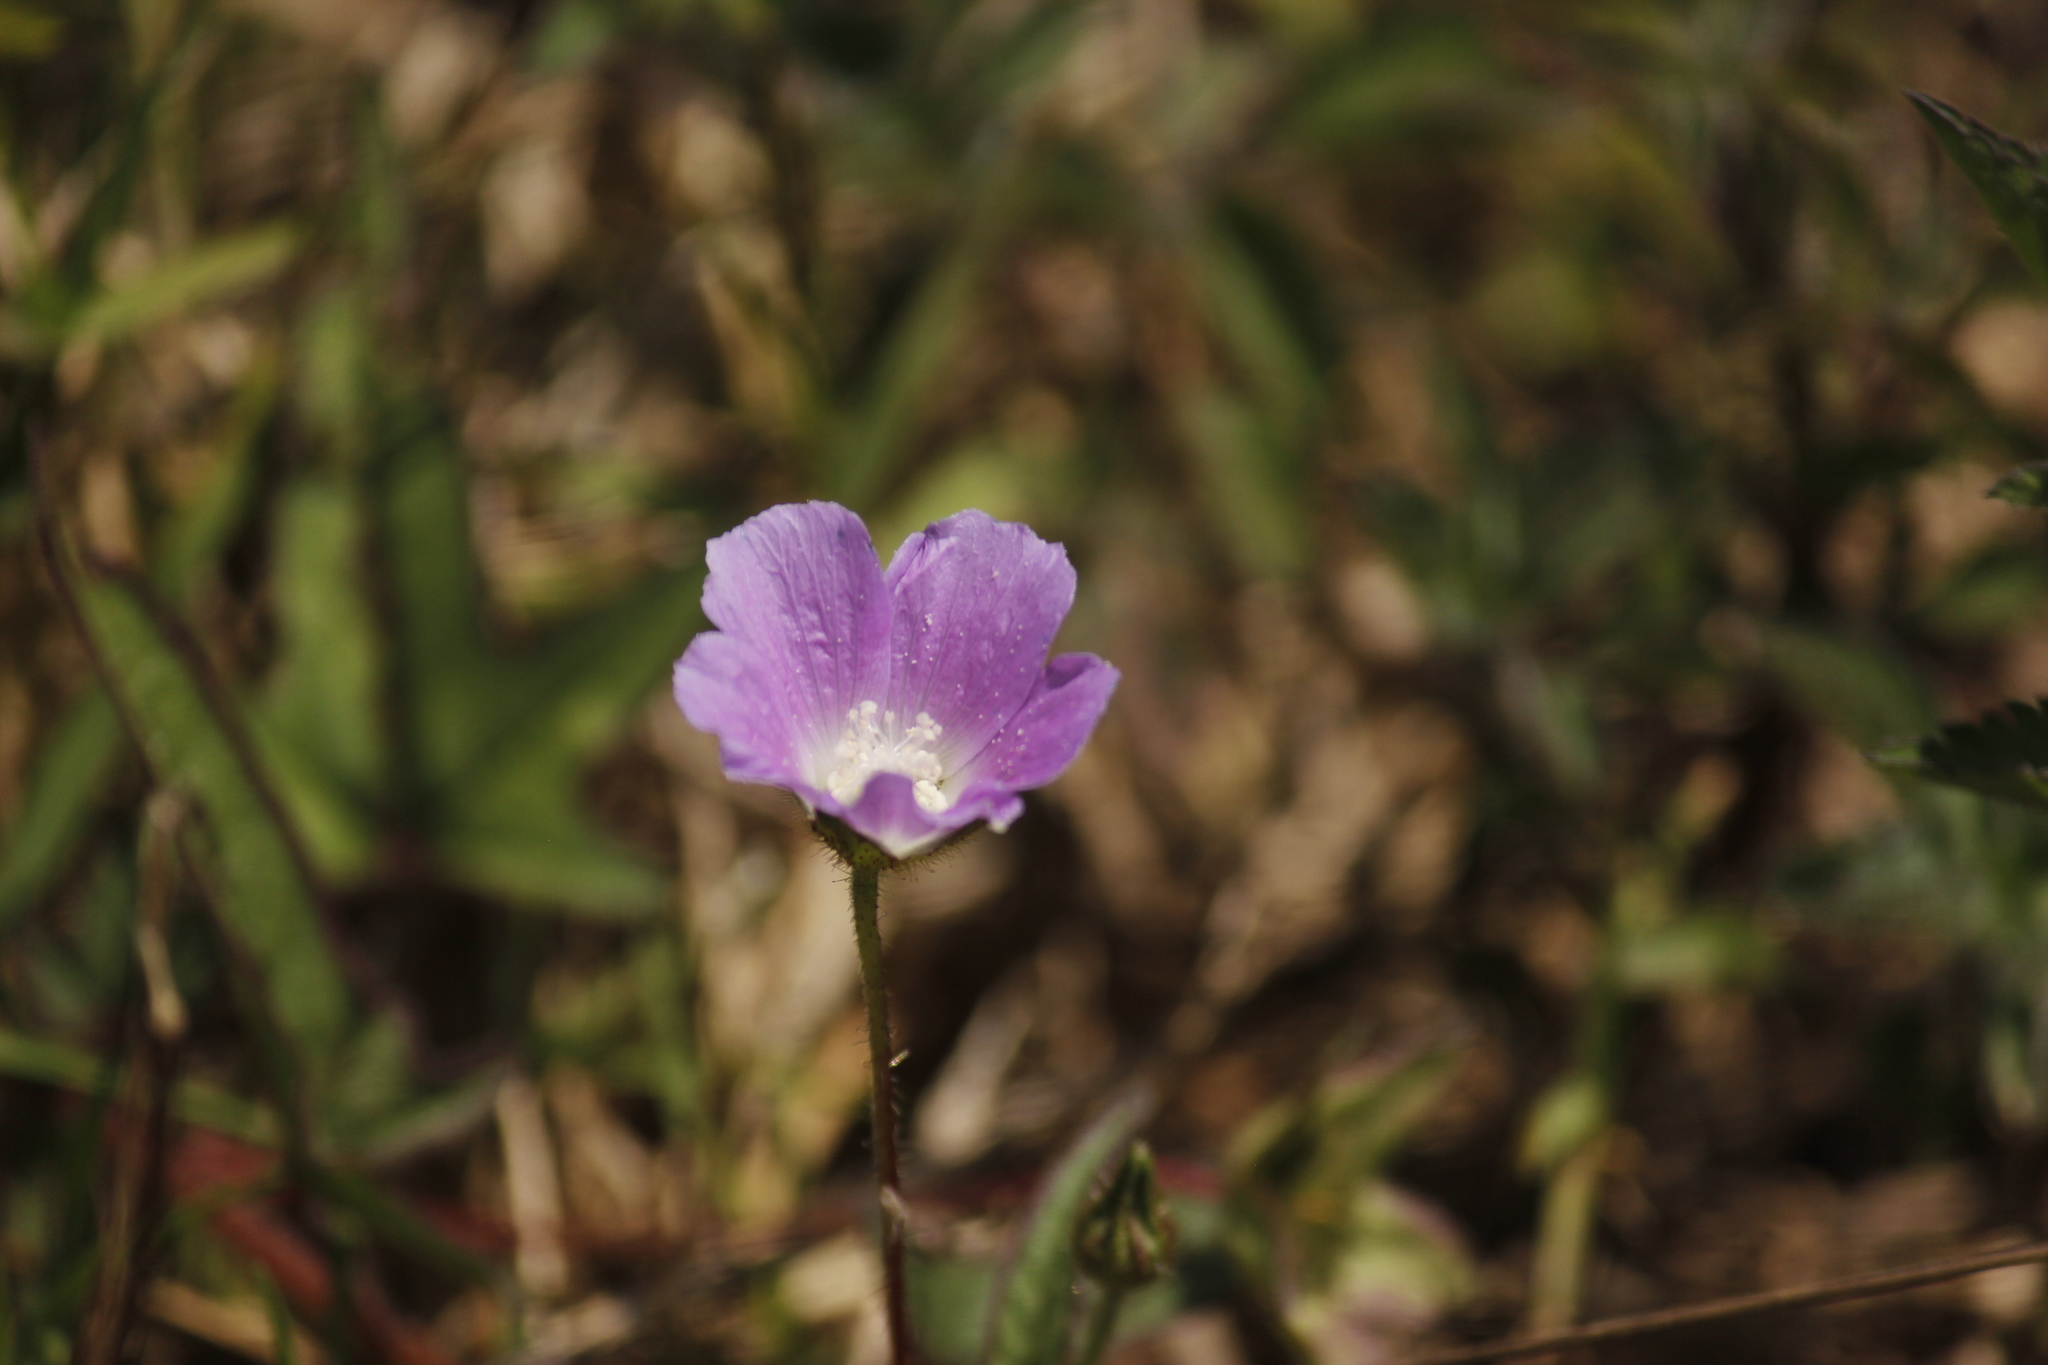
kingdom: Plantae
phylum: Tracheophyta
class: Magnoliopsida
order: Malvales
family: Malvaceae
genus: Anoda
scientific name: Anoda cristata
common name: Spurred anoda
